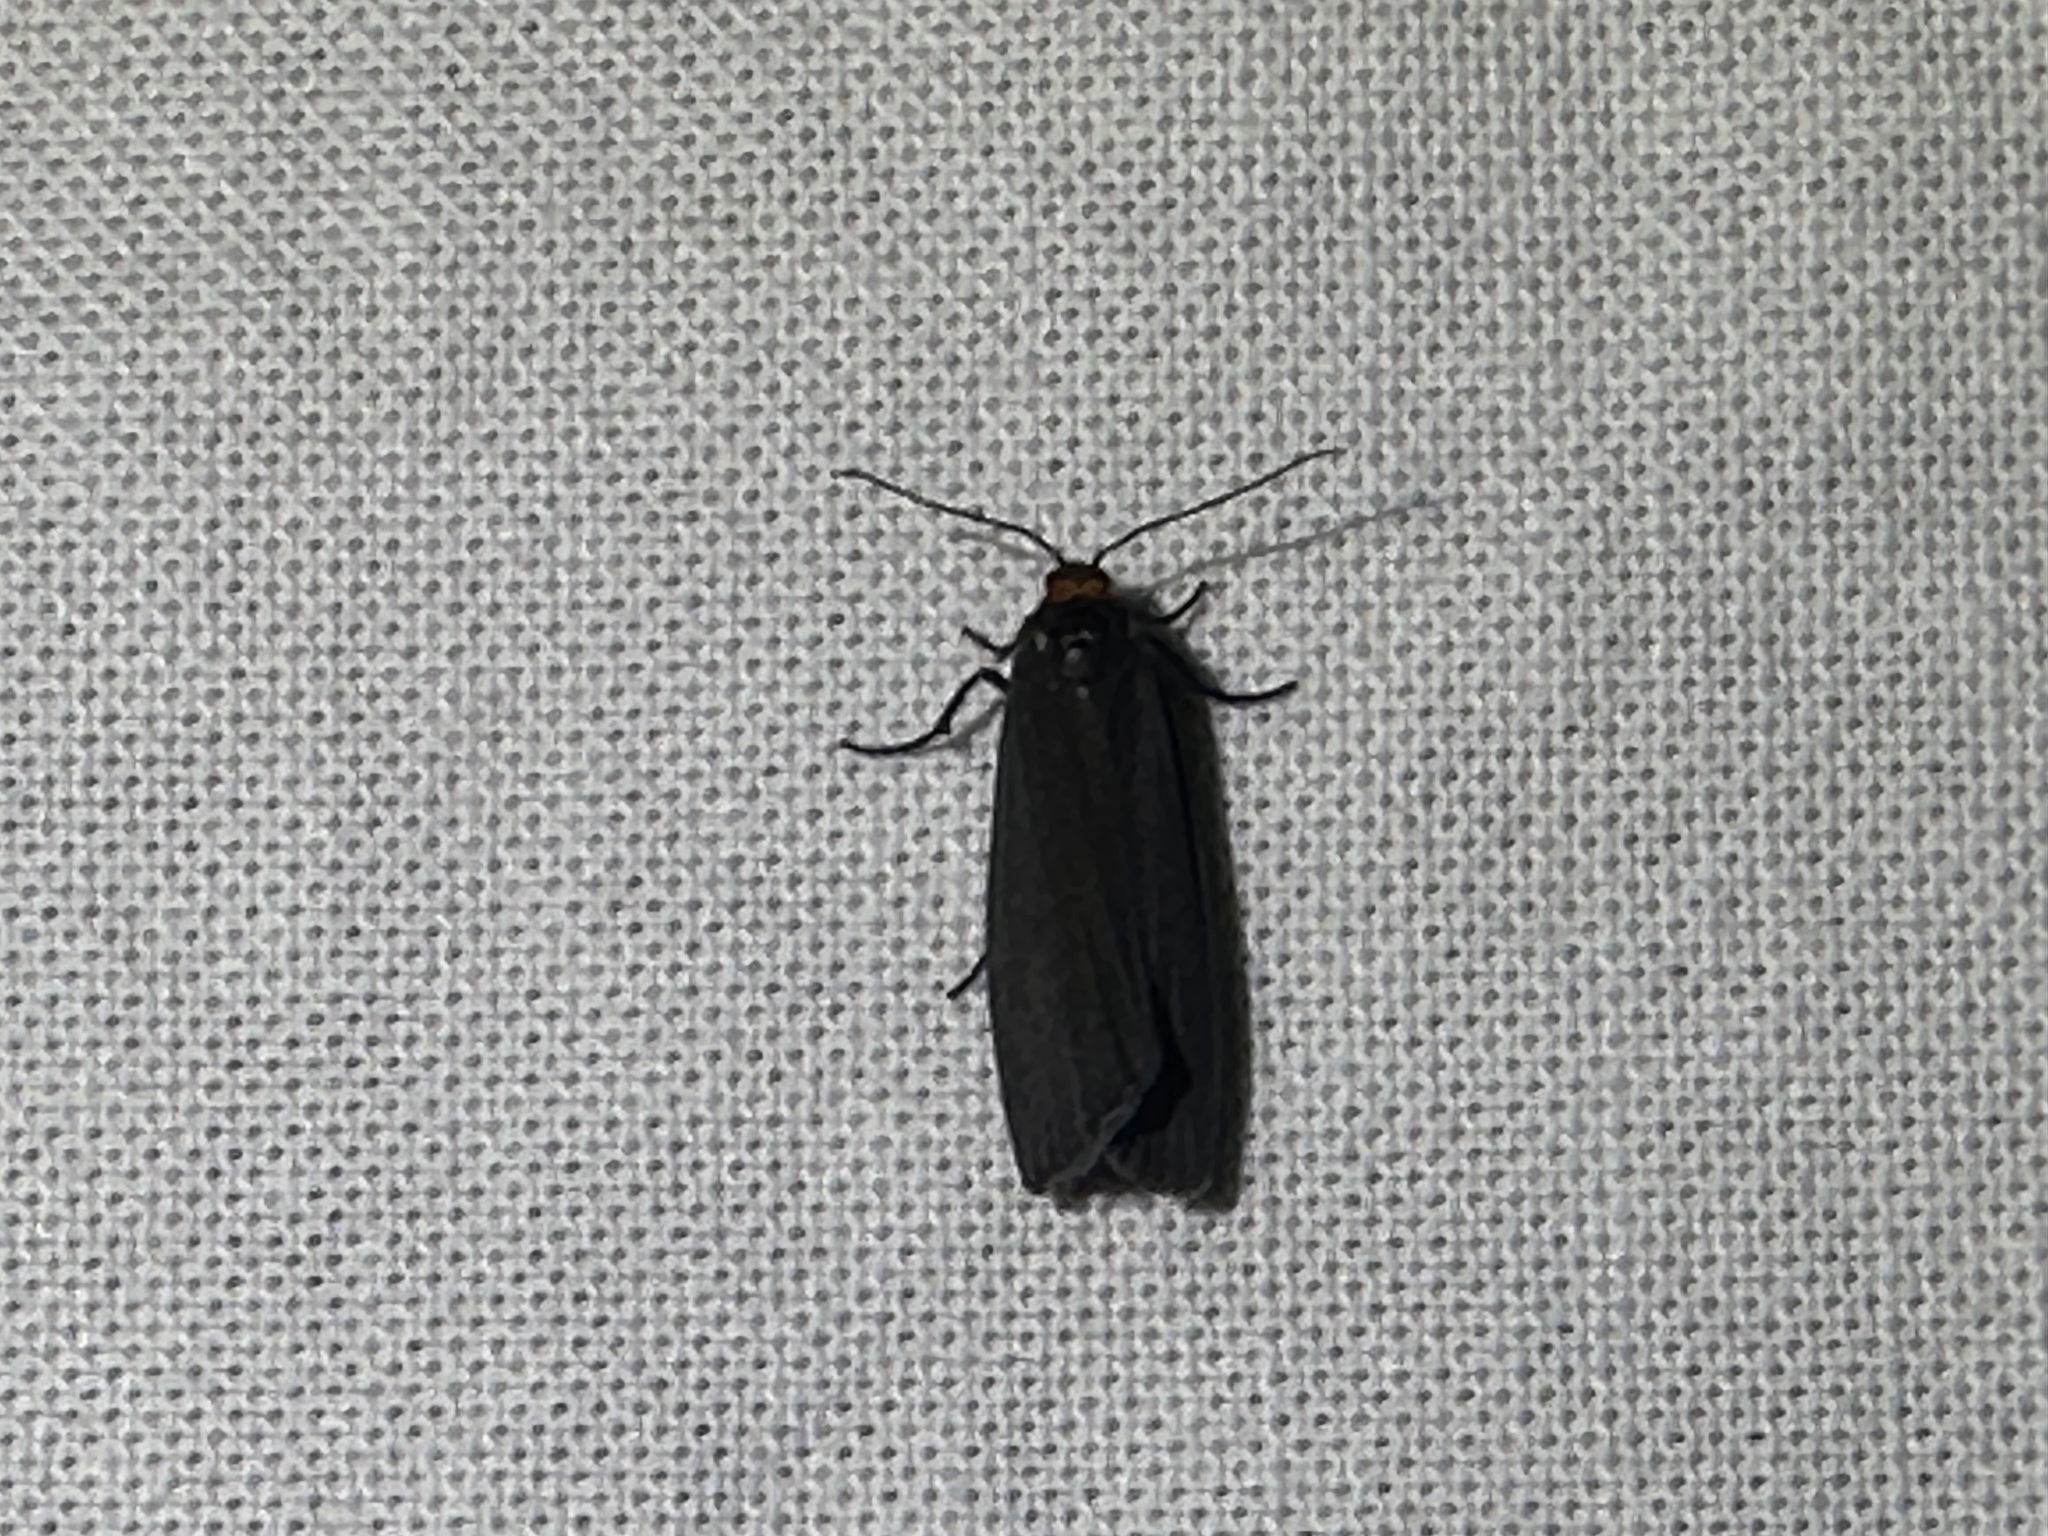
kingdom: Animalia
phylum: Arthropoda
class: Insecta
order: Lepidoptera
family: Erebidae
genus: Atolmis
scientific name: Atolmis rubricollis
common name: Red-necked footman
